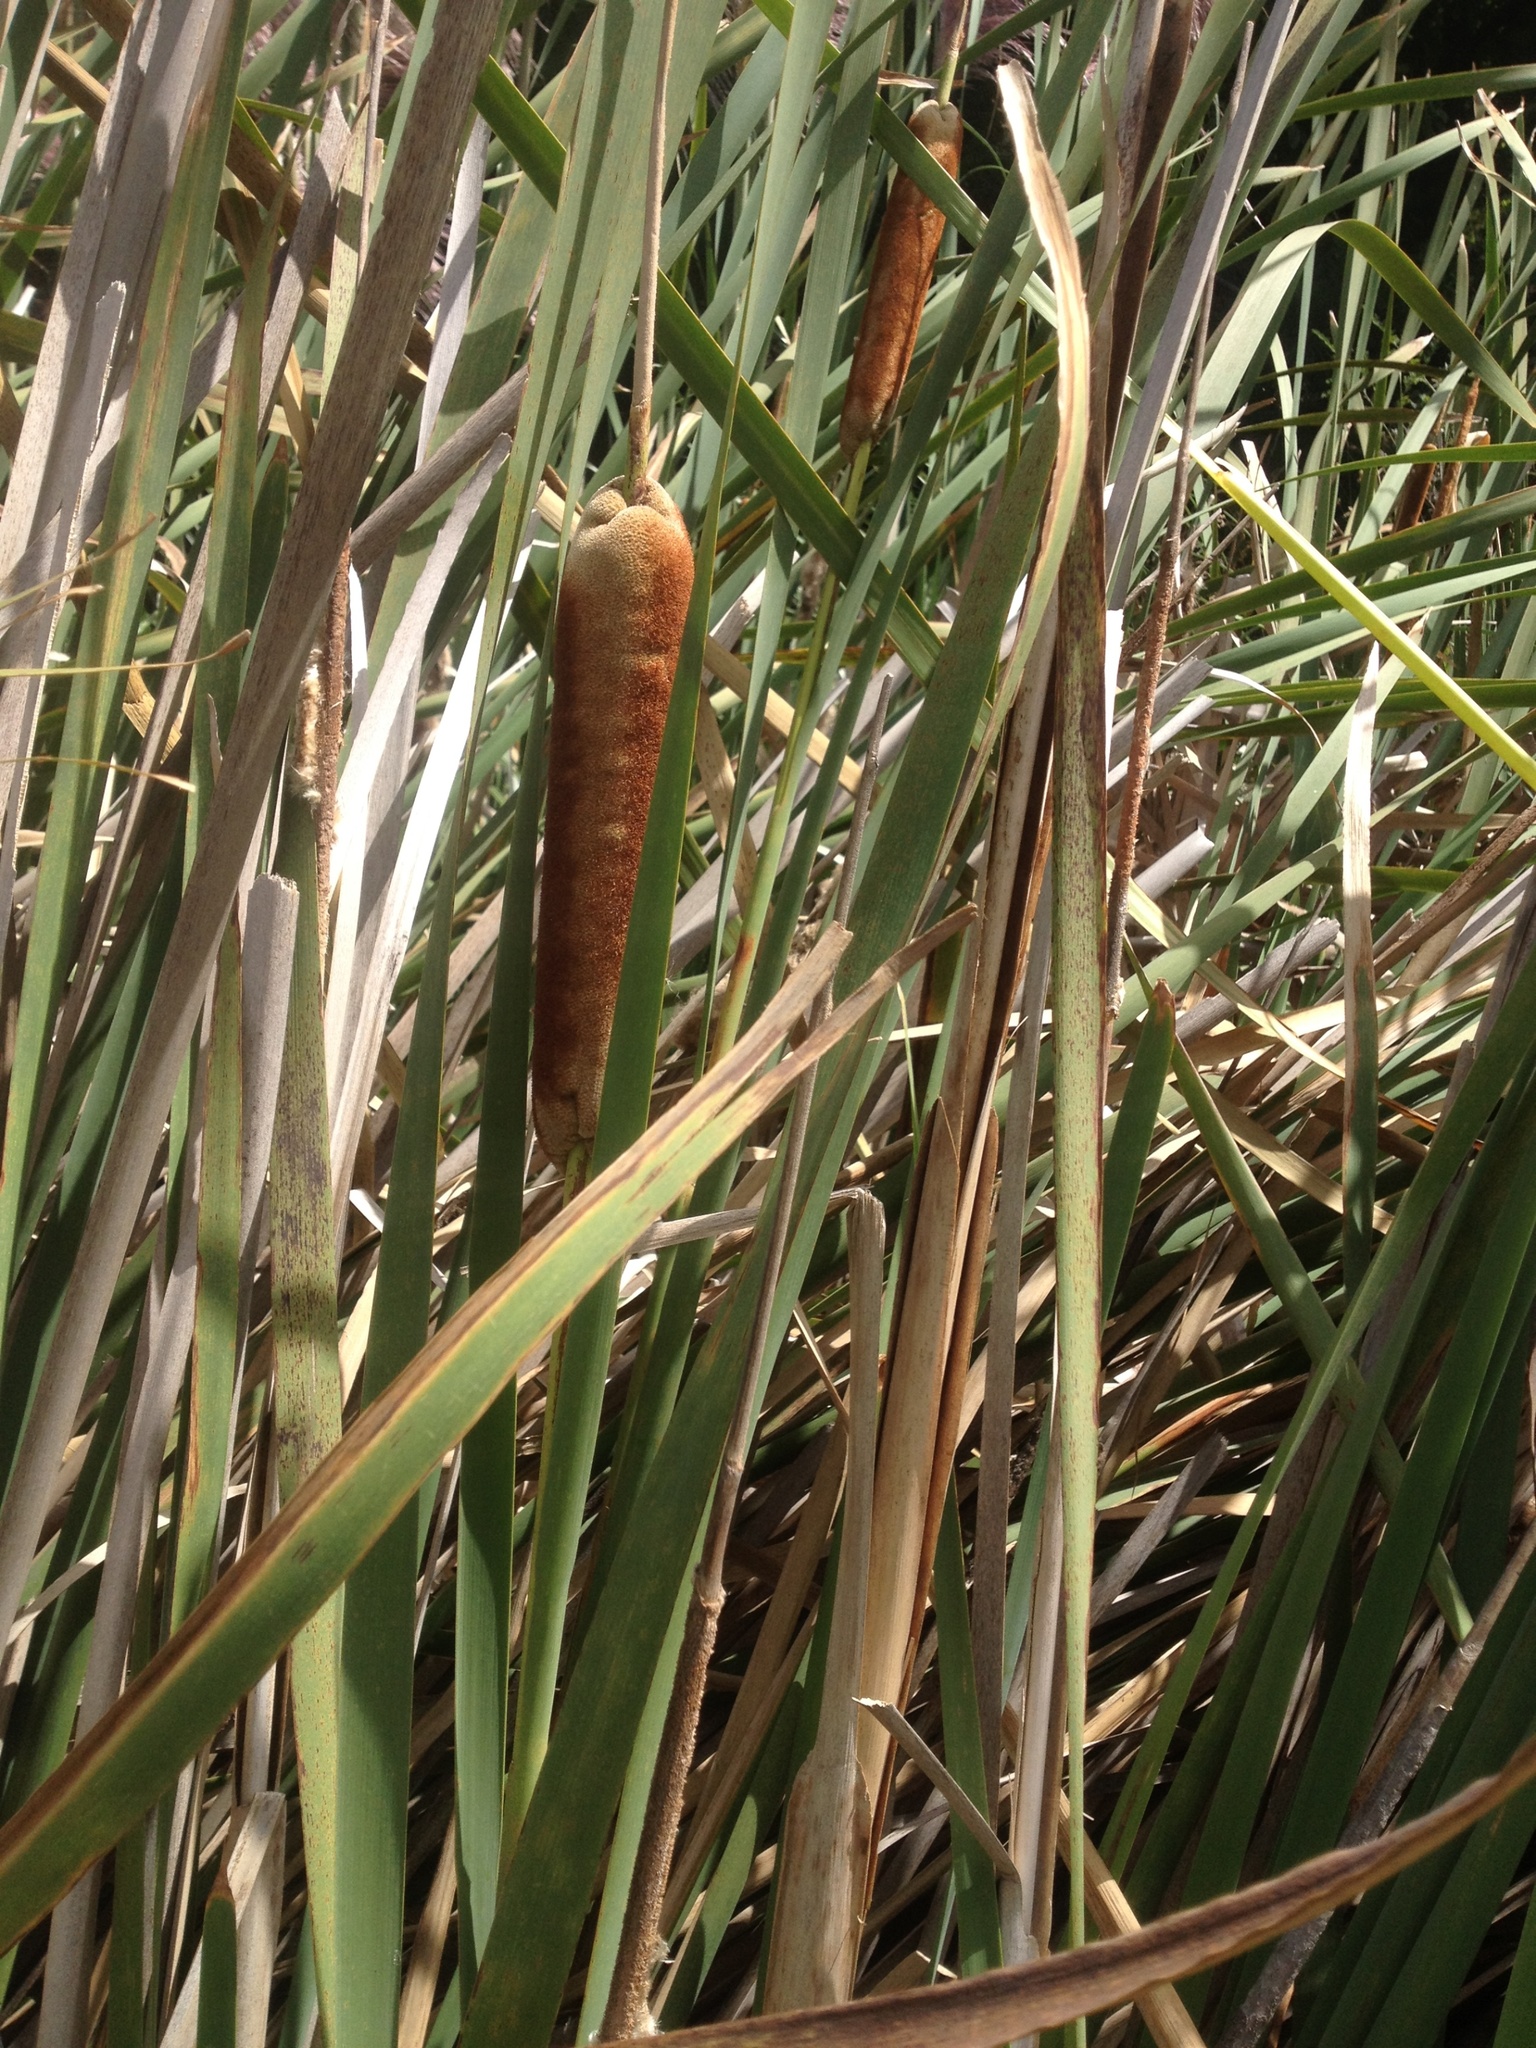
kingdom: Plantae
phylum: Tracheophyta
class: Liliopsida
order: Poales
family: Typhaceae
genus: Typha
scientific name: Typha orientalis
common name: Bullrush
